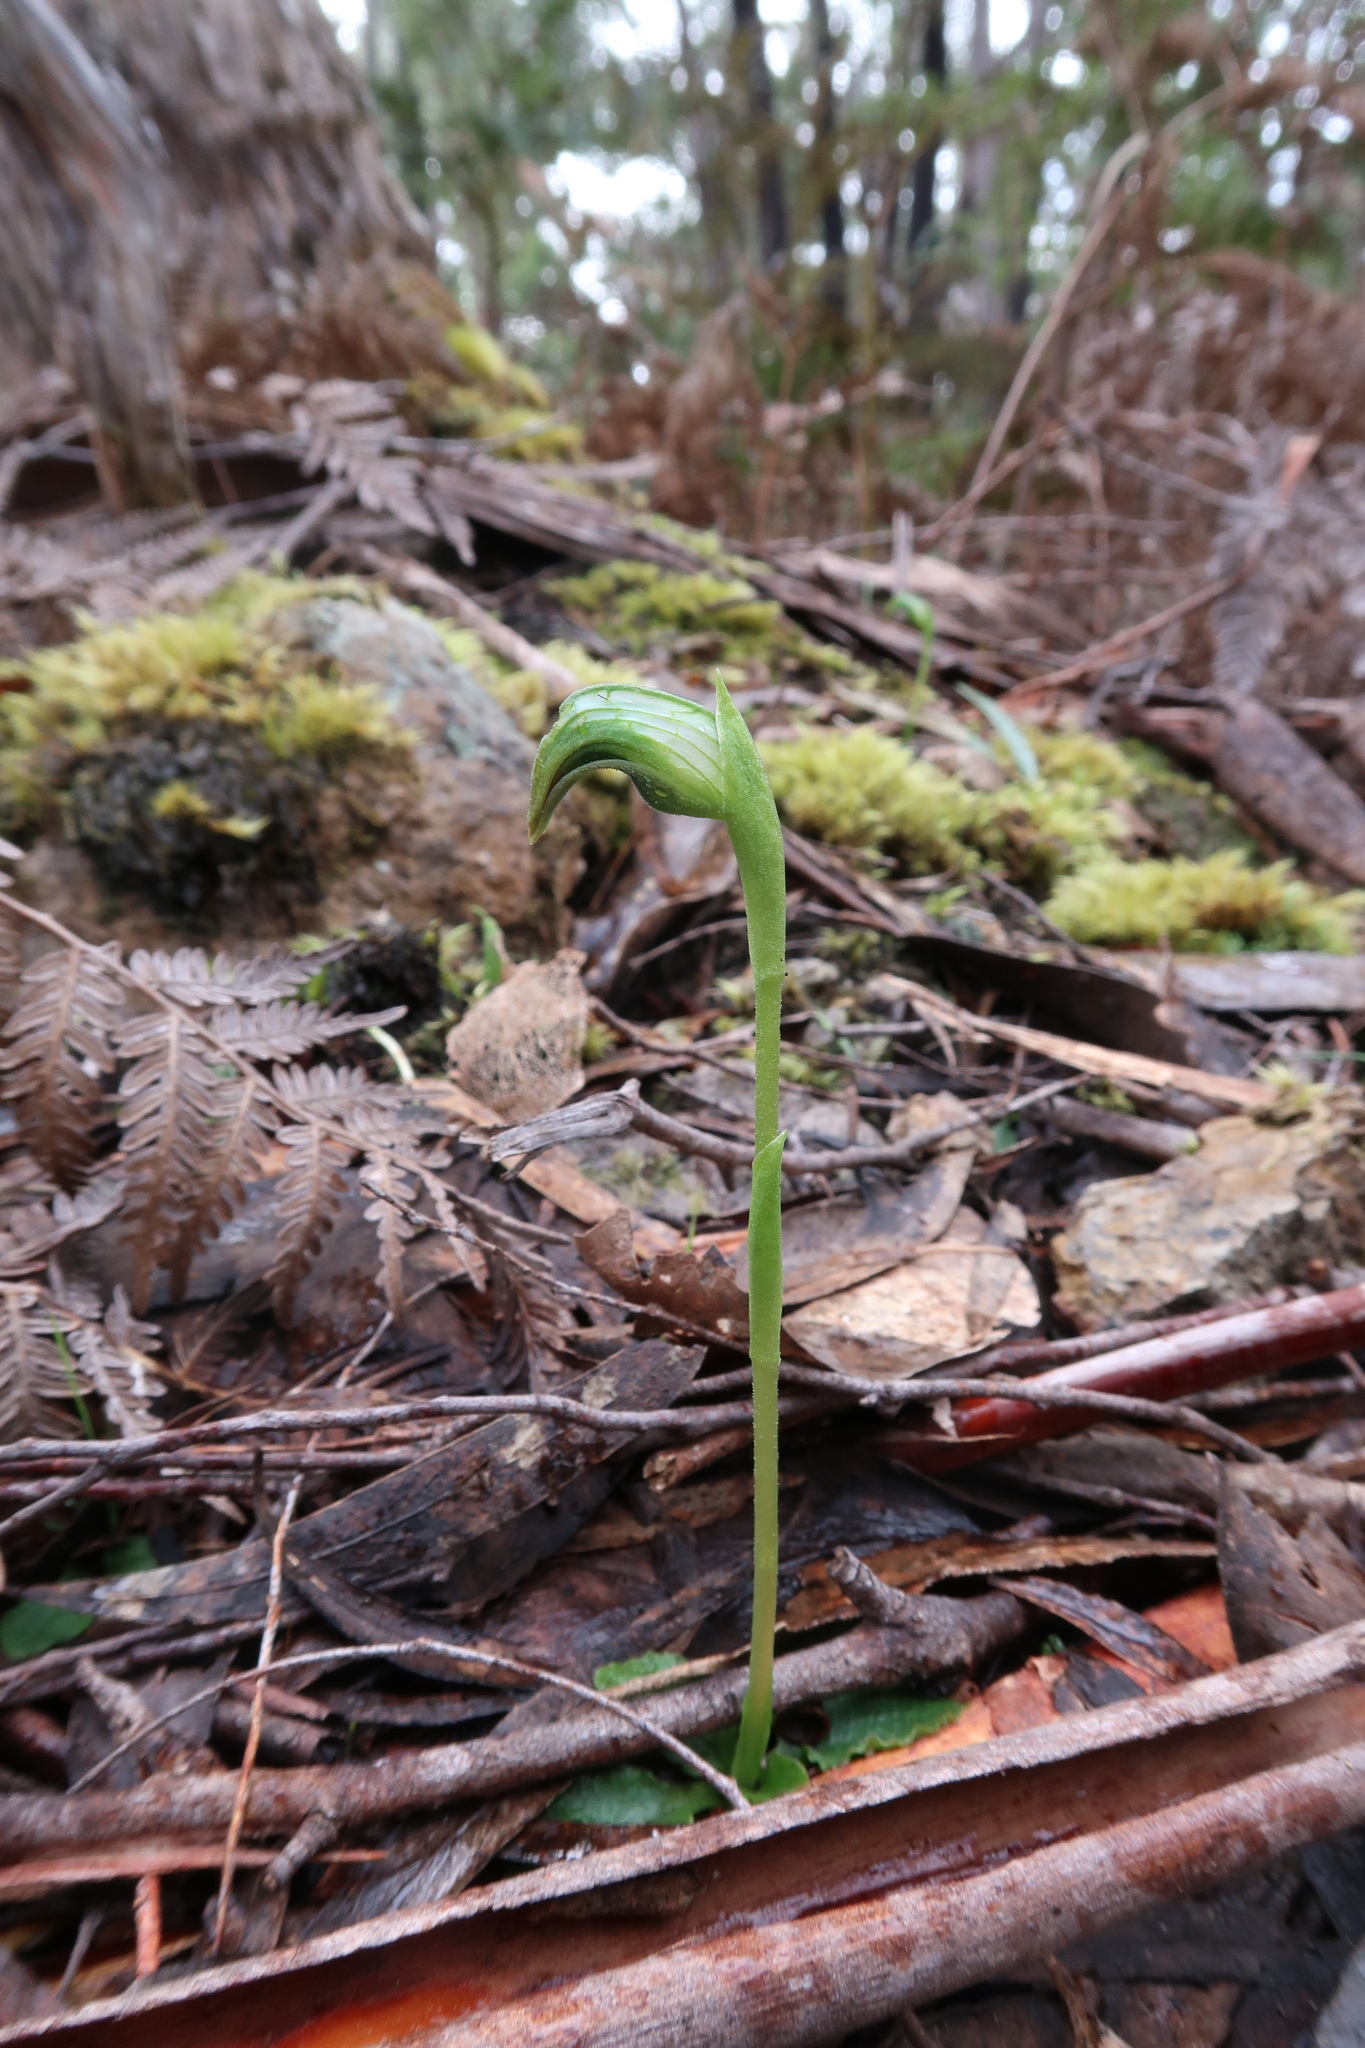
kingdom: Plantae
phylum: Tracheophyta
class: Liliopsida
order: Asparagales
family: Orchidaceae
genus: Pterostylis
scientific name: Pterostylis nutans
